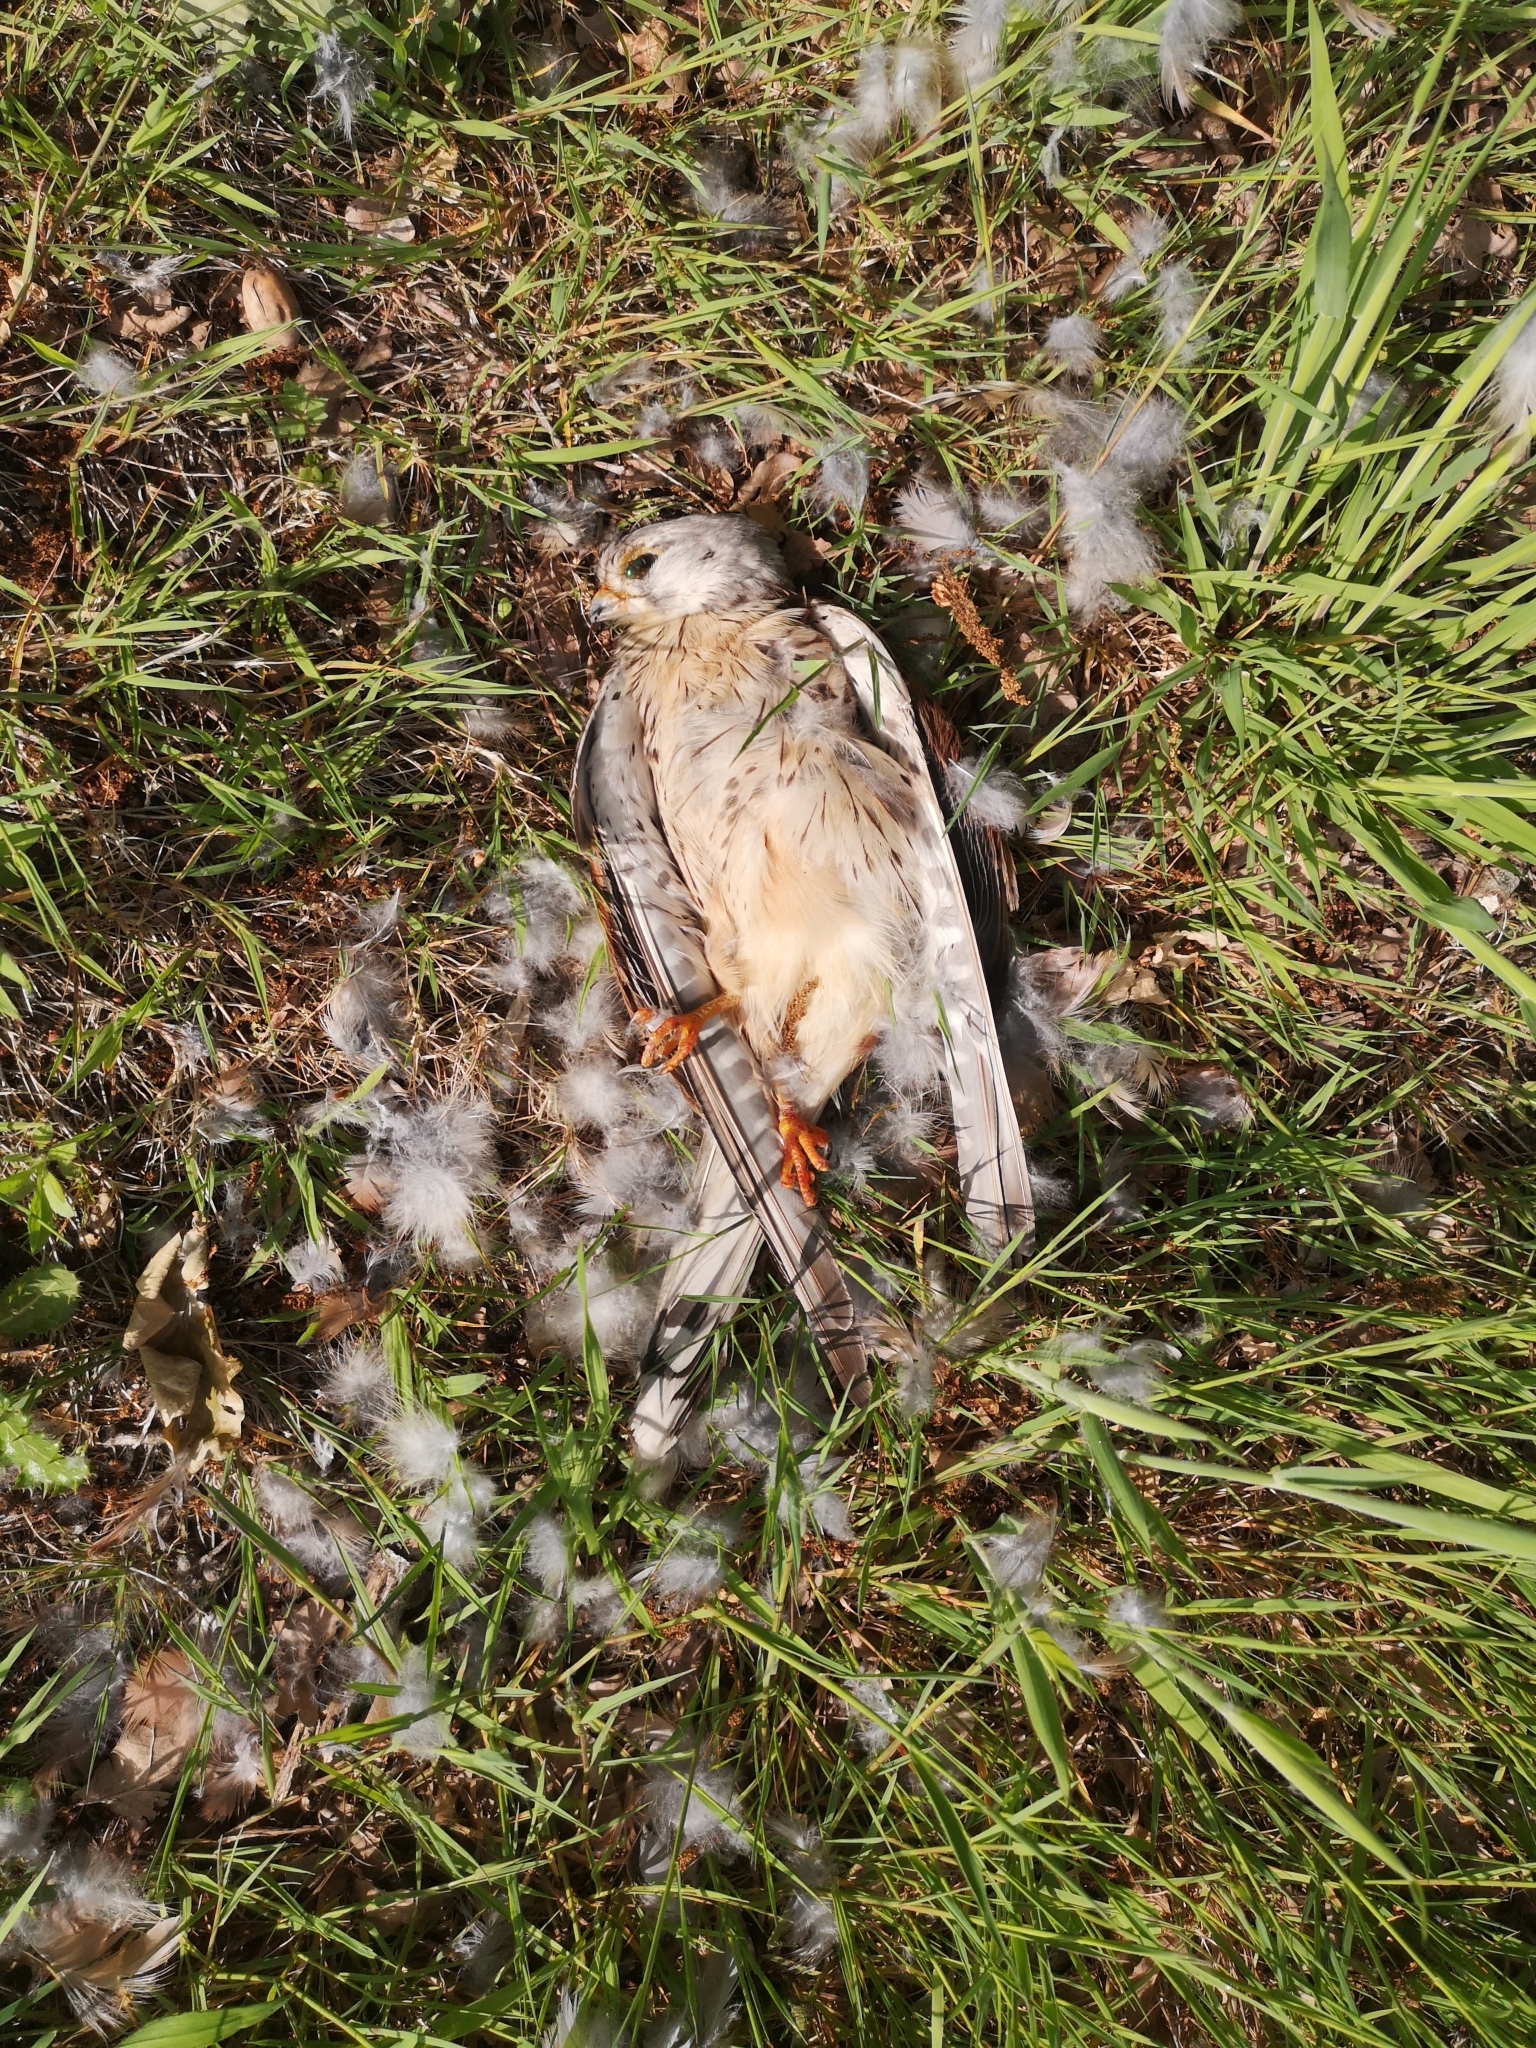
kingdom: Animalia
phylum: Chordata
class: Aves
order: Falconiformes
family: Falconidae
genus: Falco
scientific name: Falco tinnunculus
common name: Common kestrel
